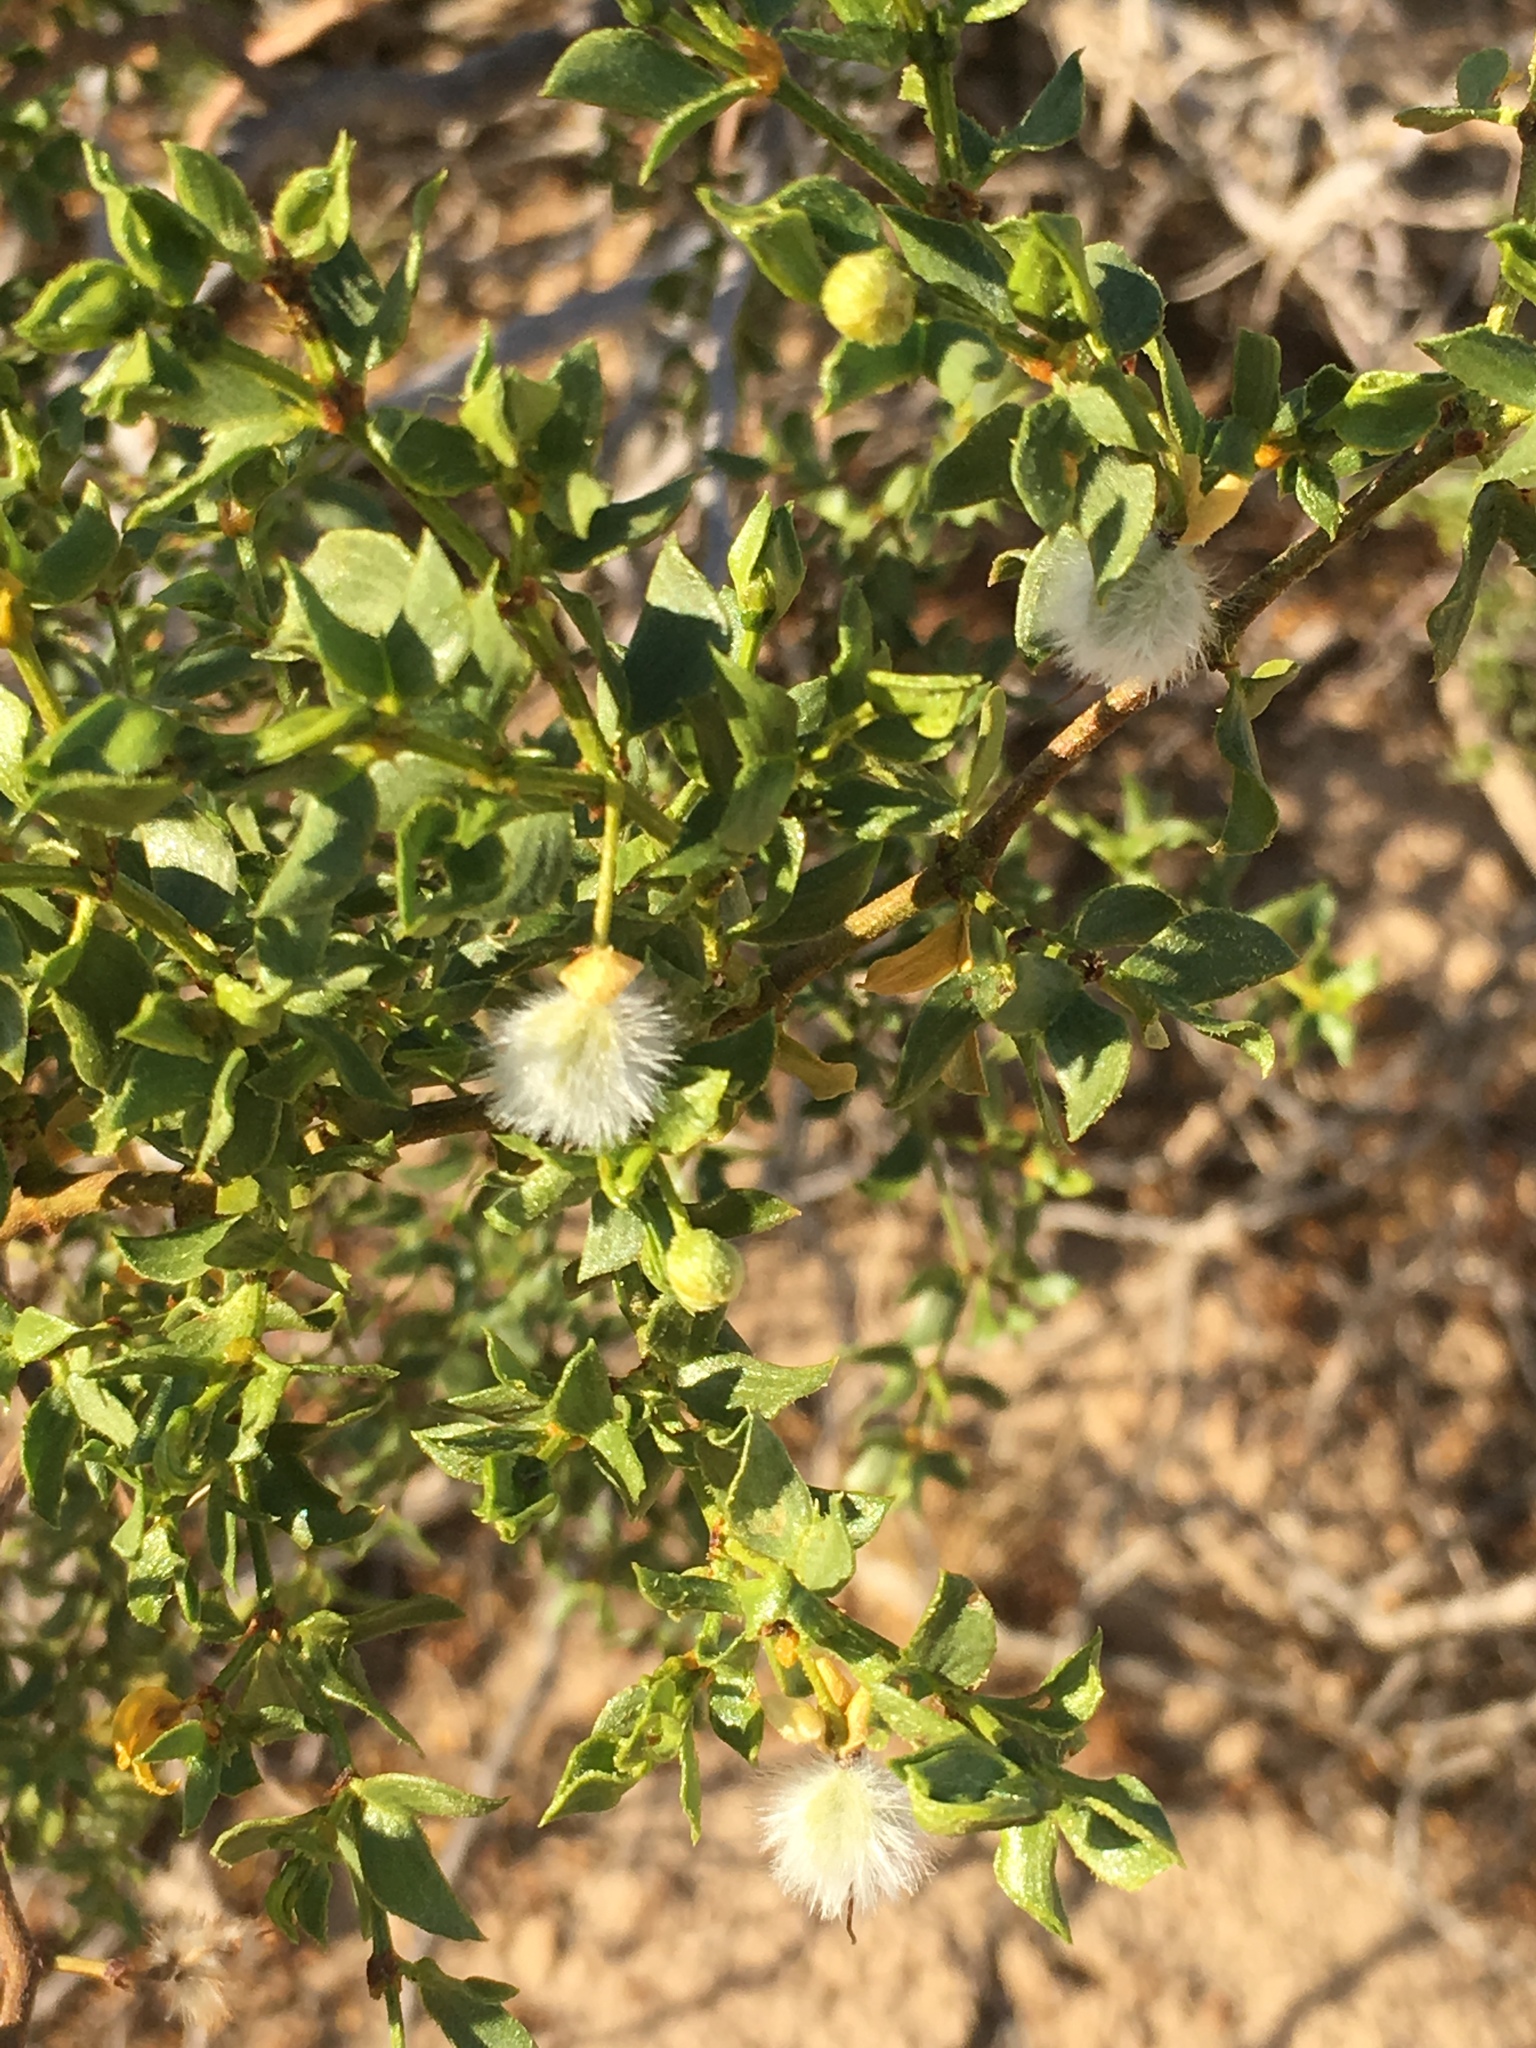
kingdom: Plantae
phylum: Tracheophyta
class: Magnoliopsida
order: Zygophyllales
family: Zygophyllaceae
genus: Larrea
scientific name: Larrea tridentata
